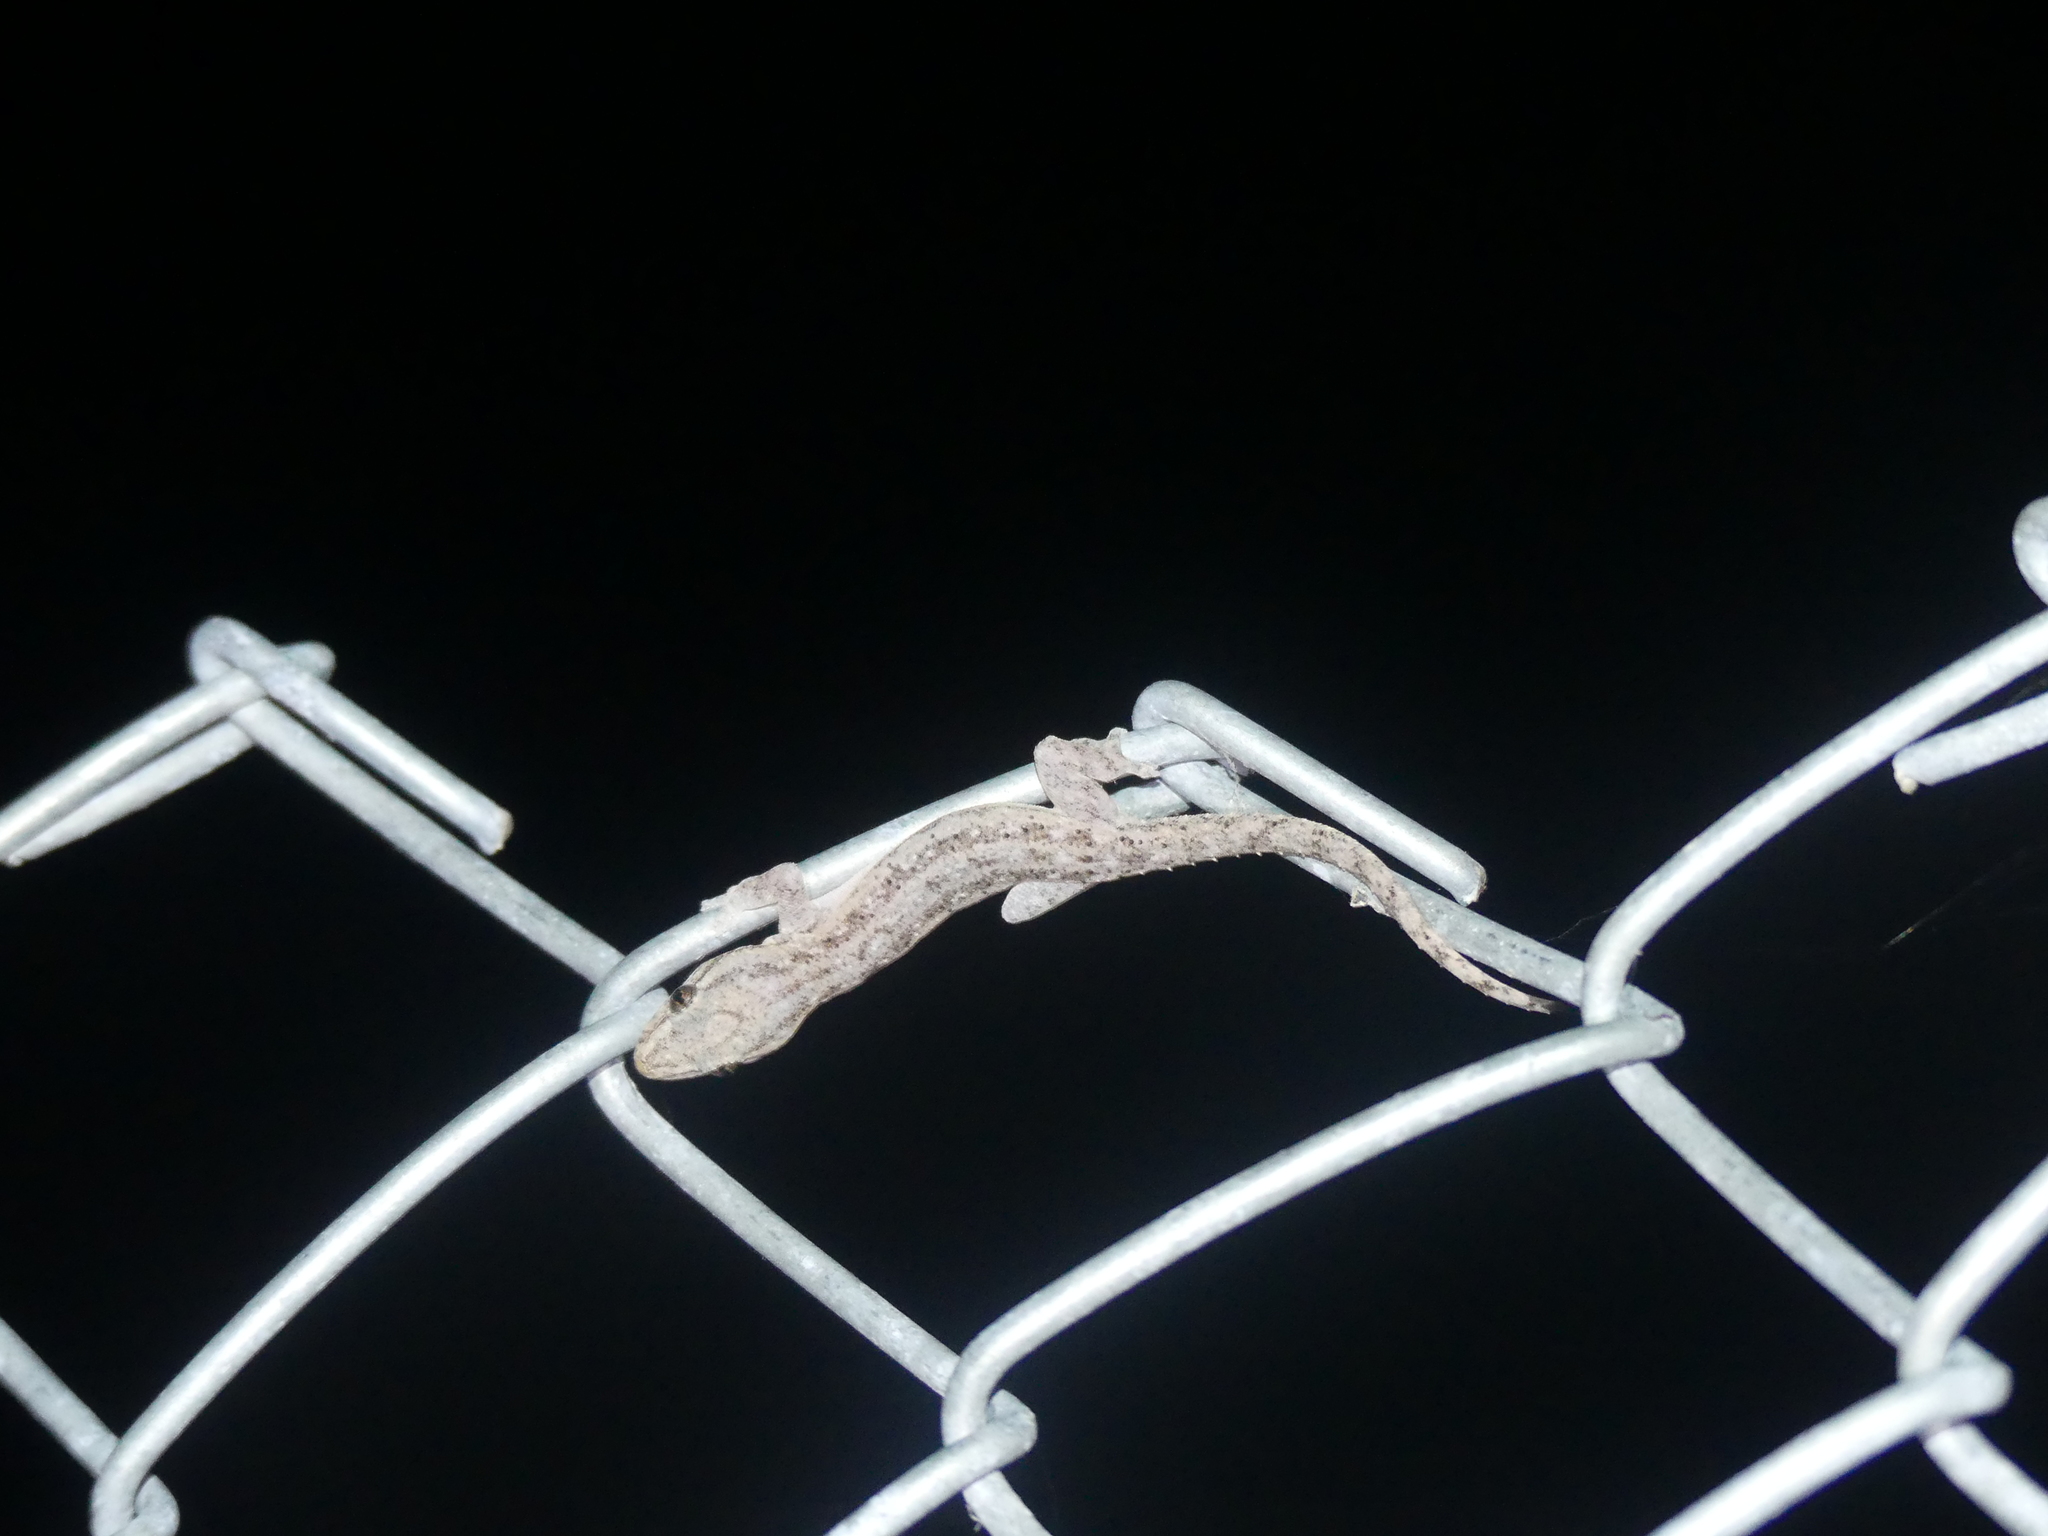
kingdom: Animalia
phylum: Chordata
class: Squamata
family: Gekkonidae
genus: Hemidactylus
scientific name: Hemidactylus frenatus
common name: Common house gecko
